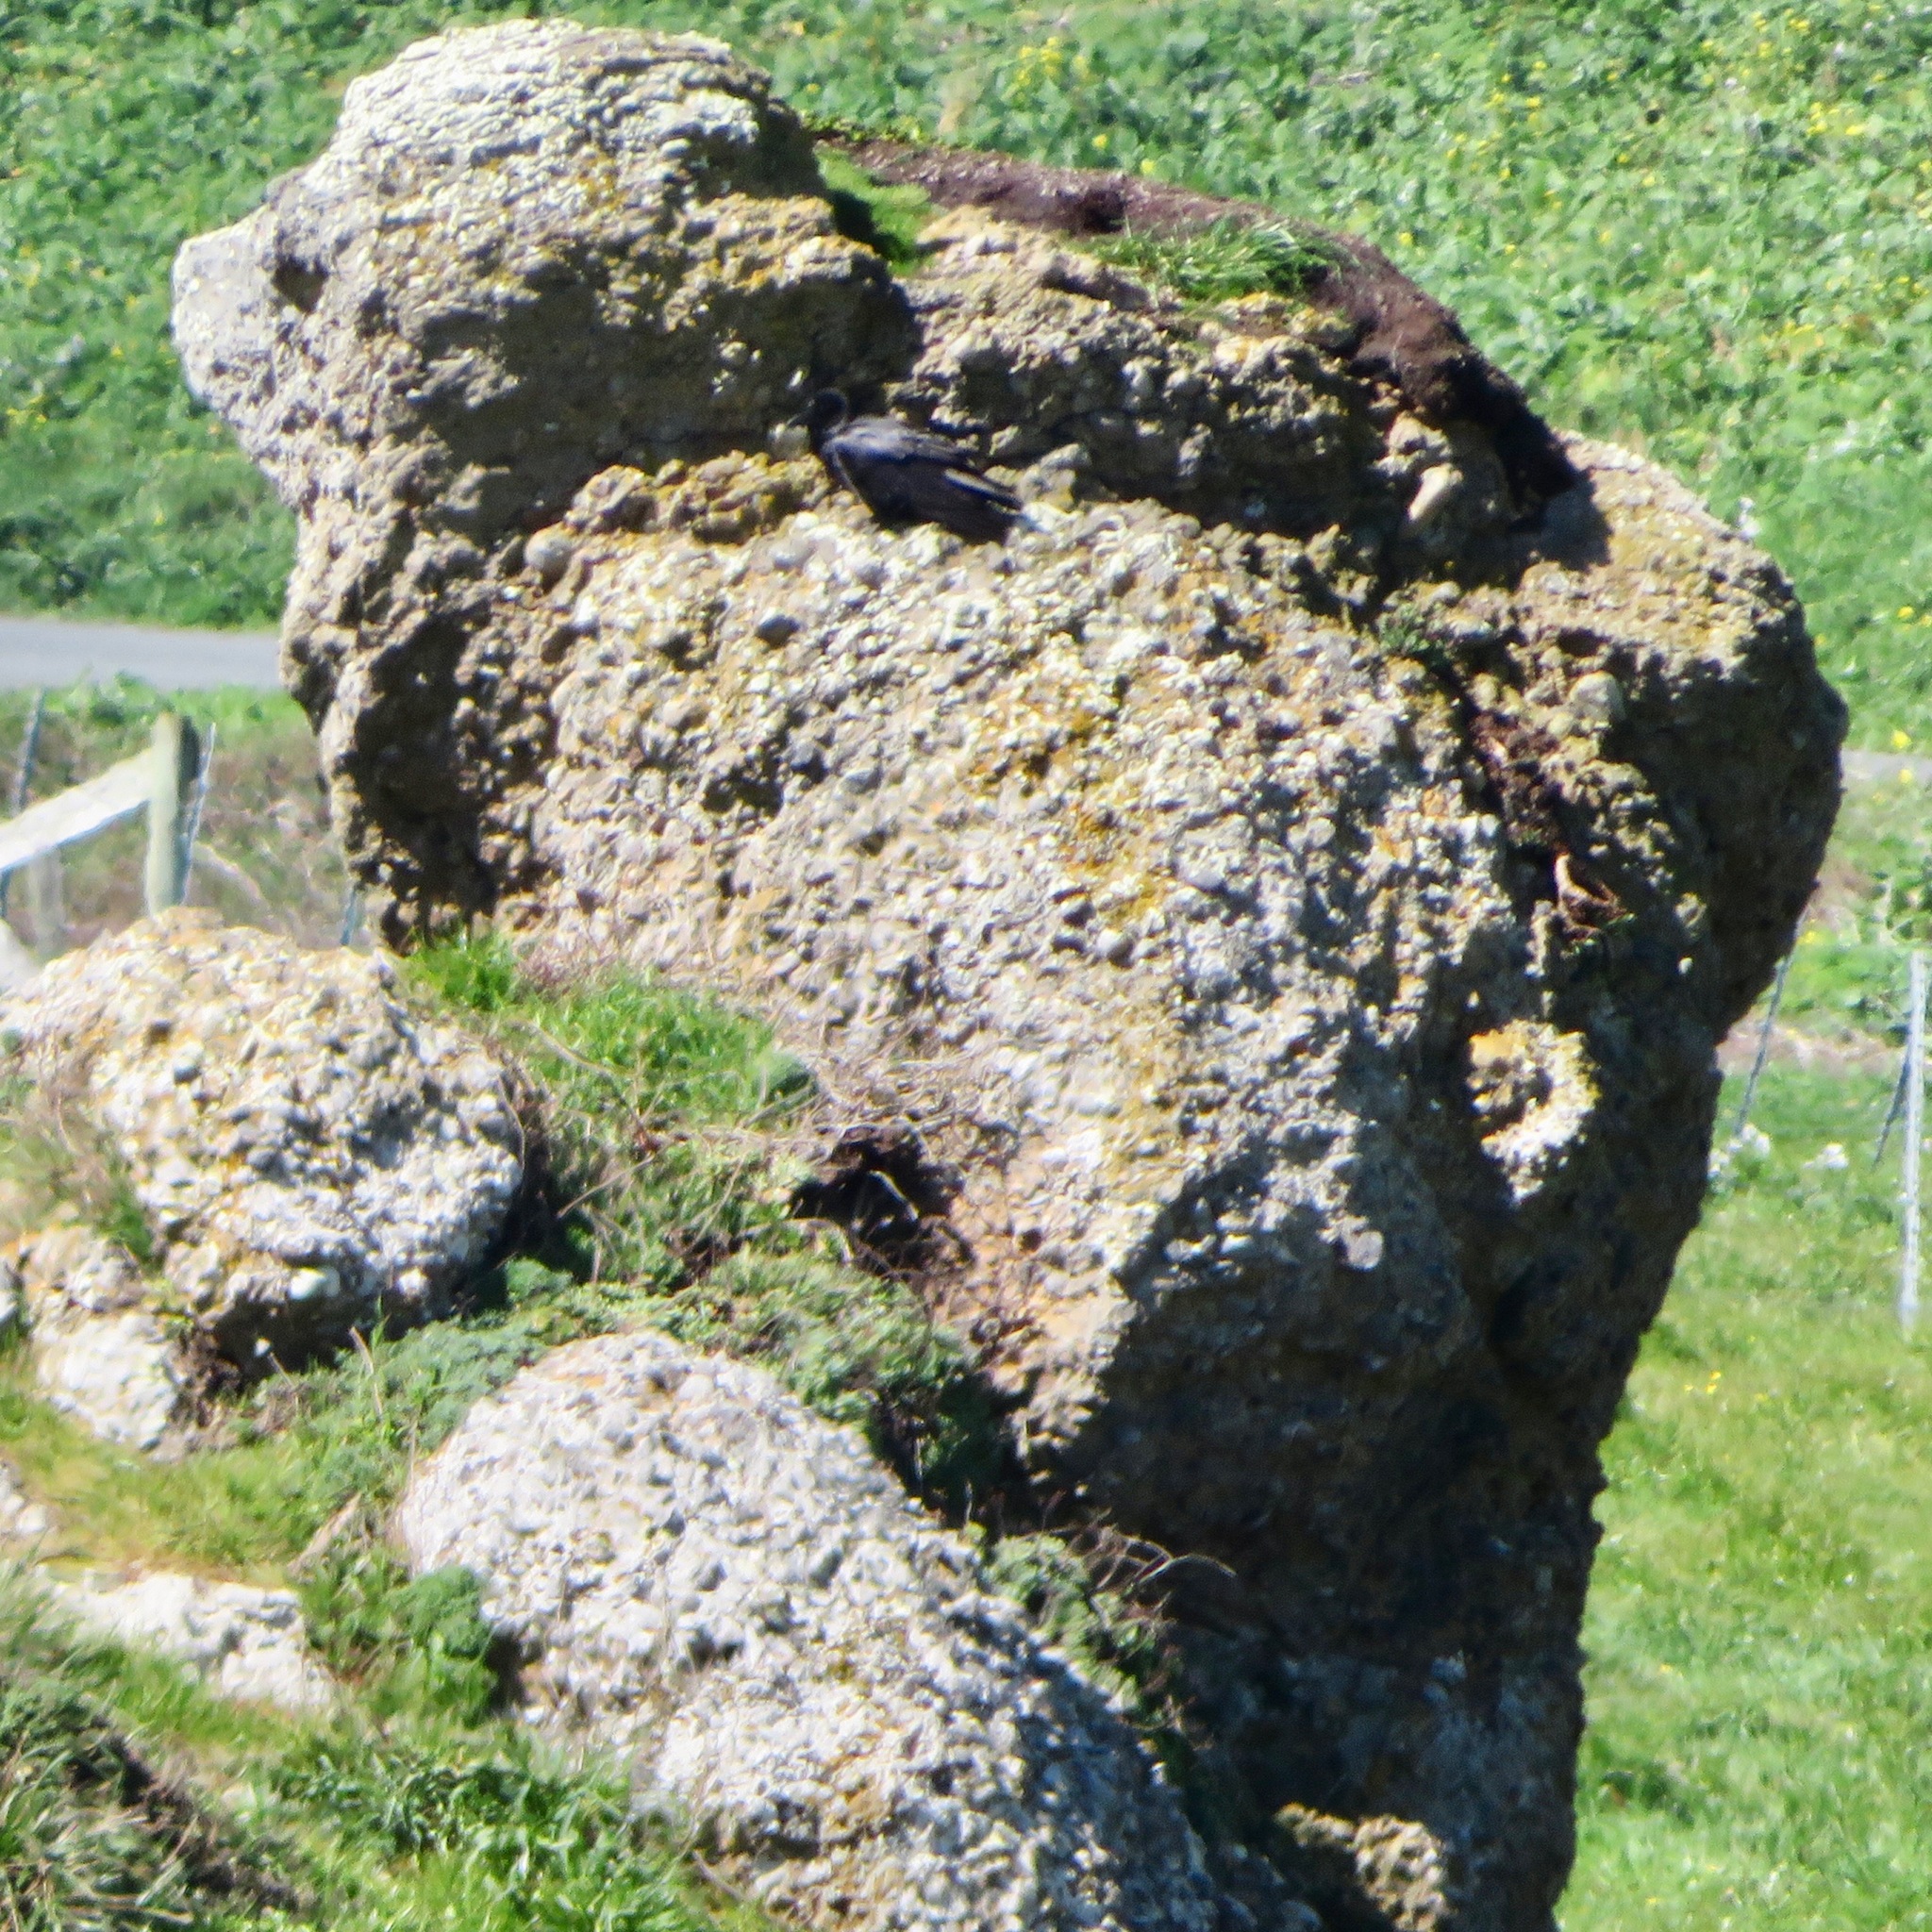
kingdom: Animalia
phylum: Chordata
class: Aves
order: Passeriformes
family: Corvidae
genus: Corvus
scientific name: Corvus corax
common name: Common raven
